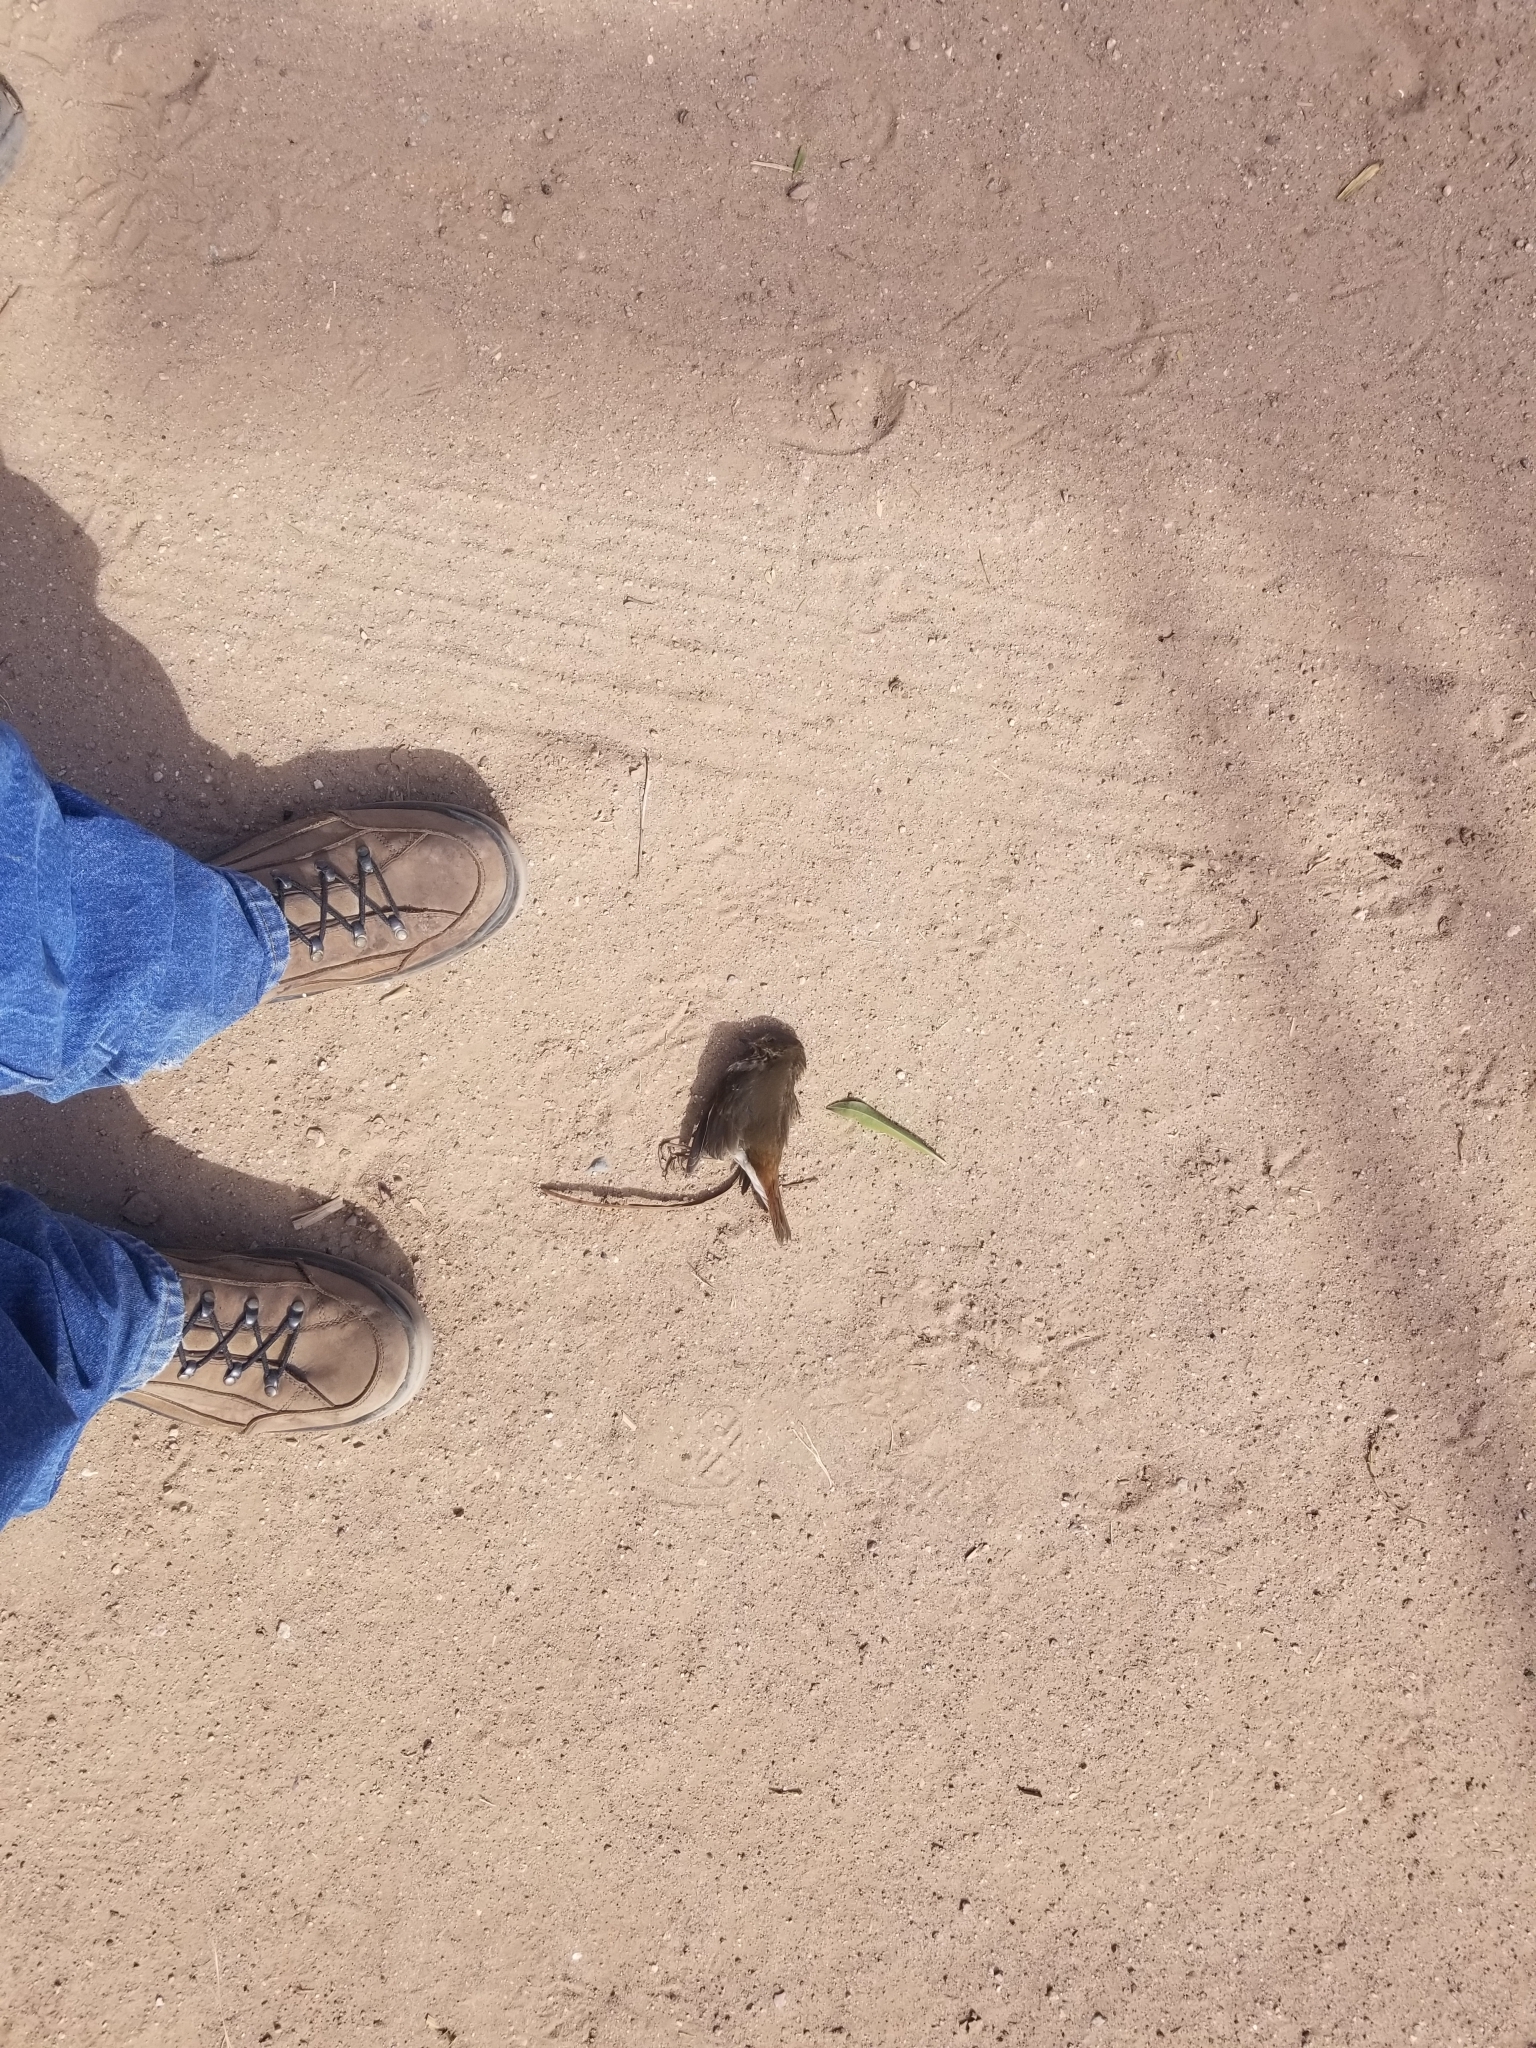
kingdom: Animalia
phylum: Chordata
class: Aves
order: Passeriformes
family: Turdidae
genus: Catharus
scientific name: Catharus guttatus
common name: Hermit thrush
